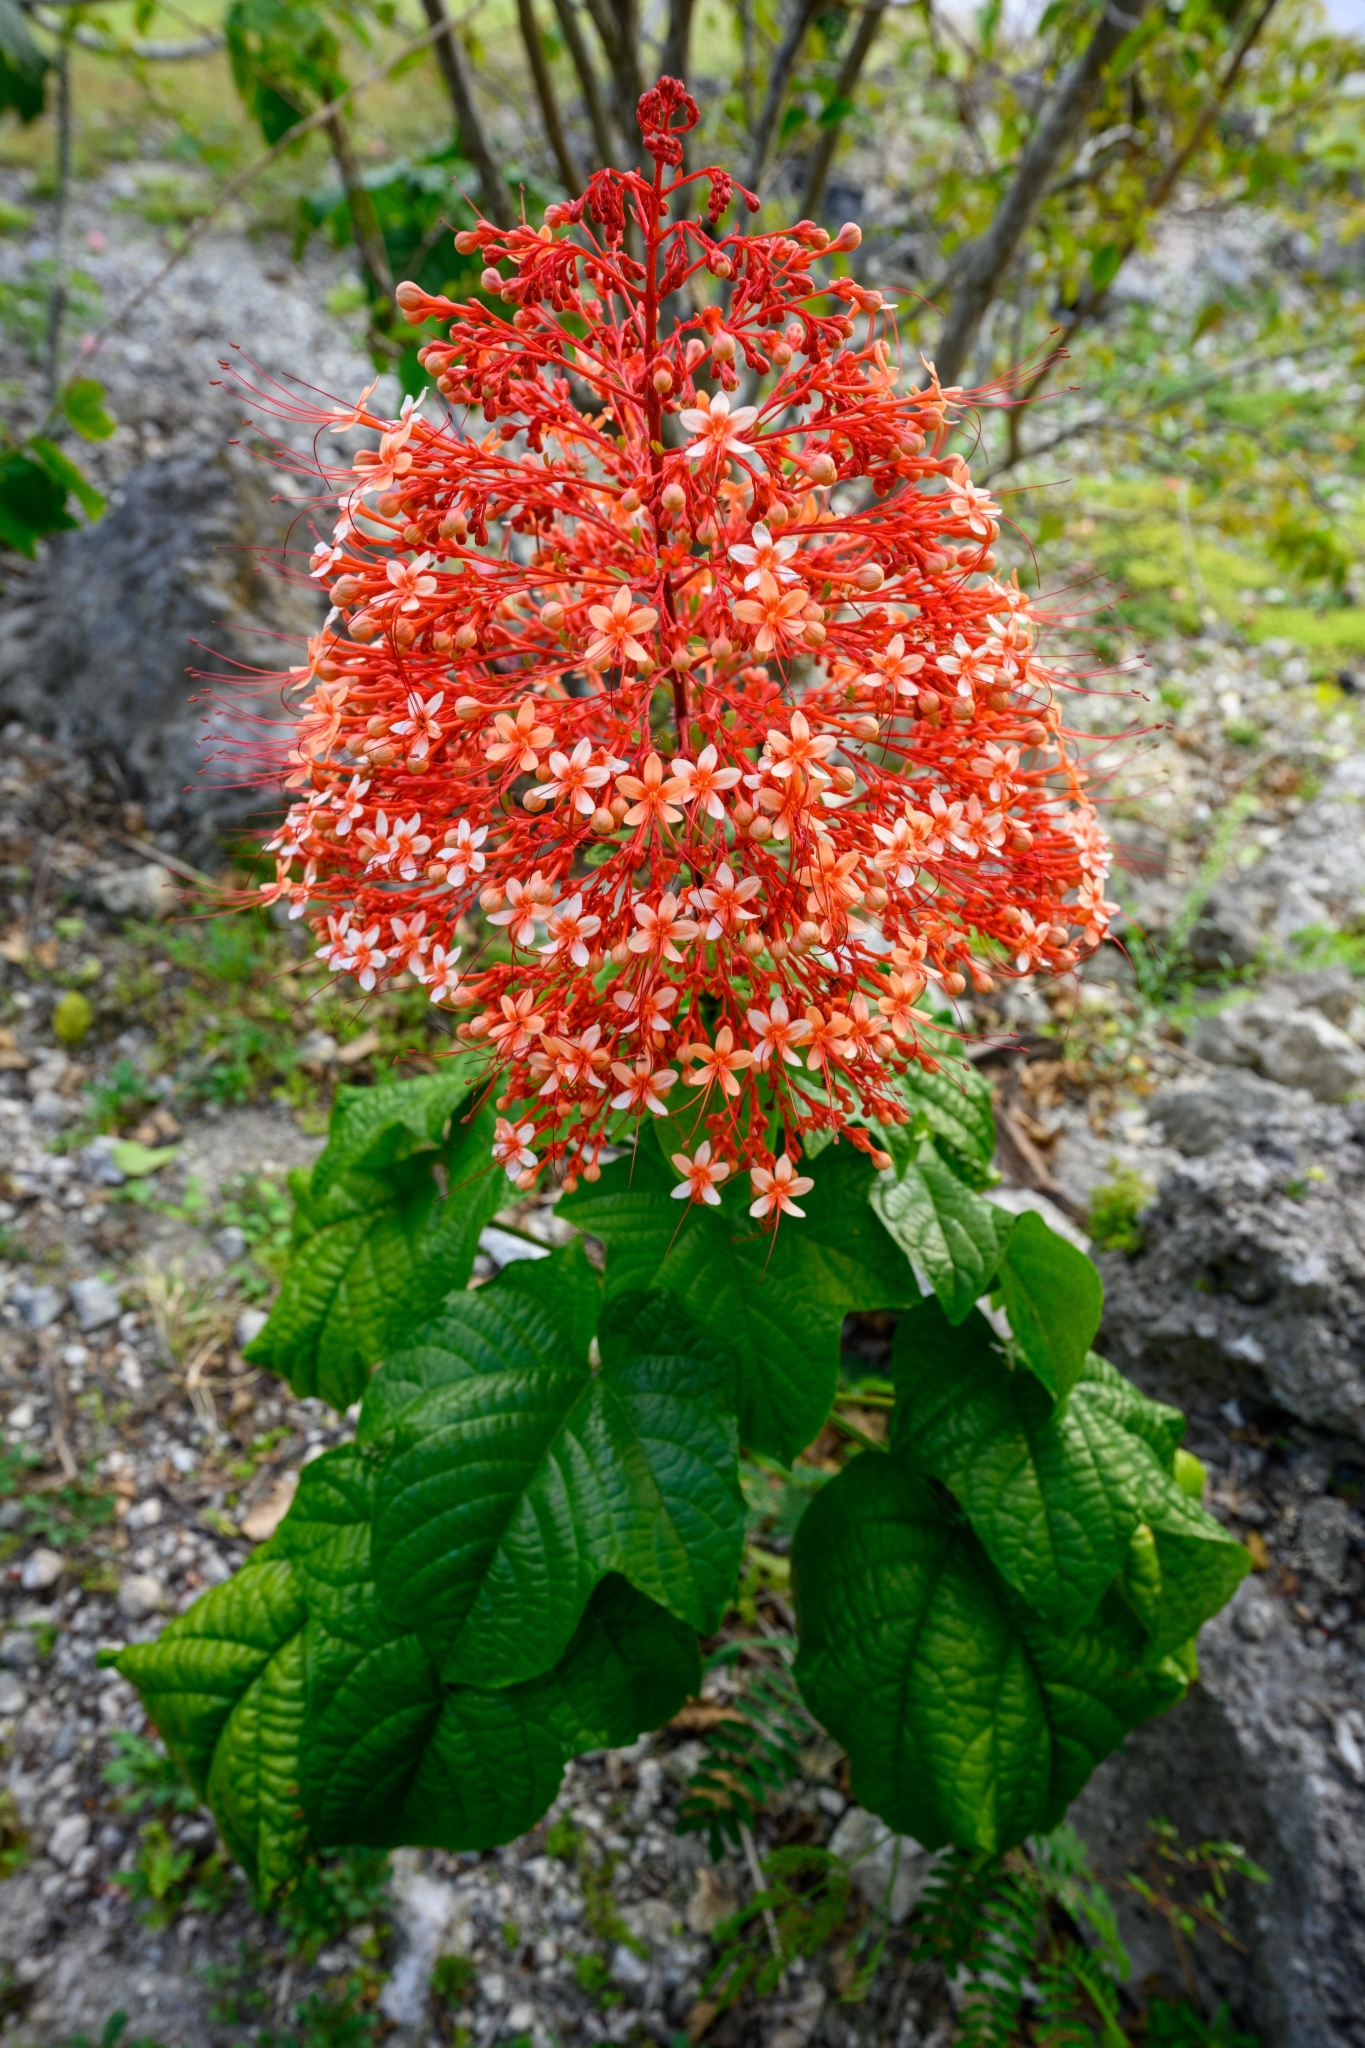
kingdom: Plantae
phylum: Tracheophyta
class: Magnoliopsida
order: Lamiales
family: Lamiaceae
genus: Clerodendrum
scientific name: Clerodendrum paniculatum
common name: Pagoda-flower
